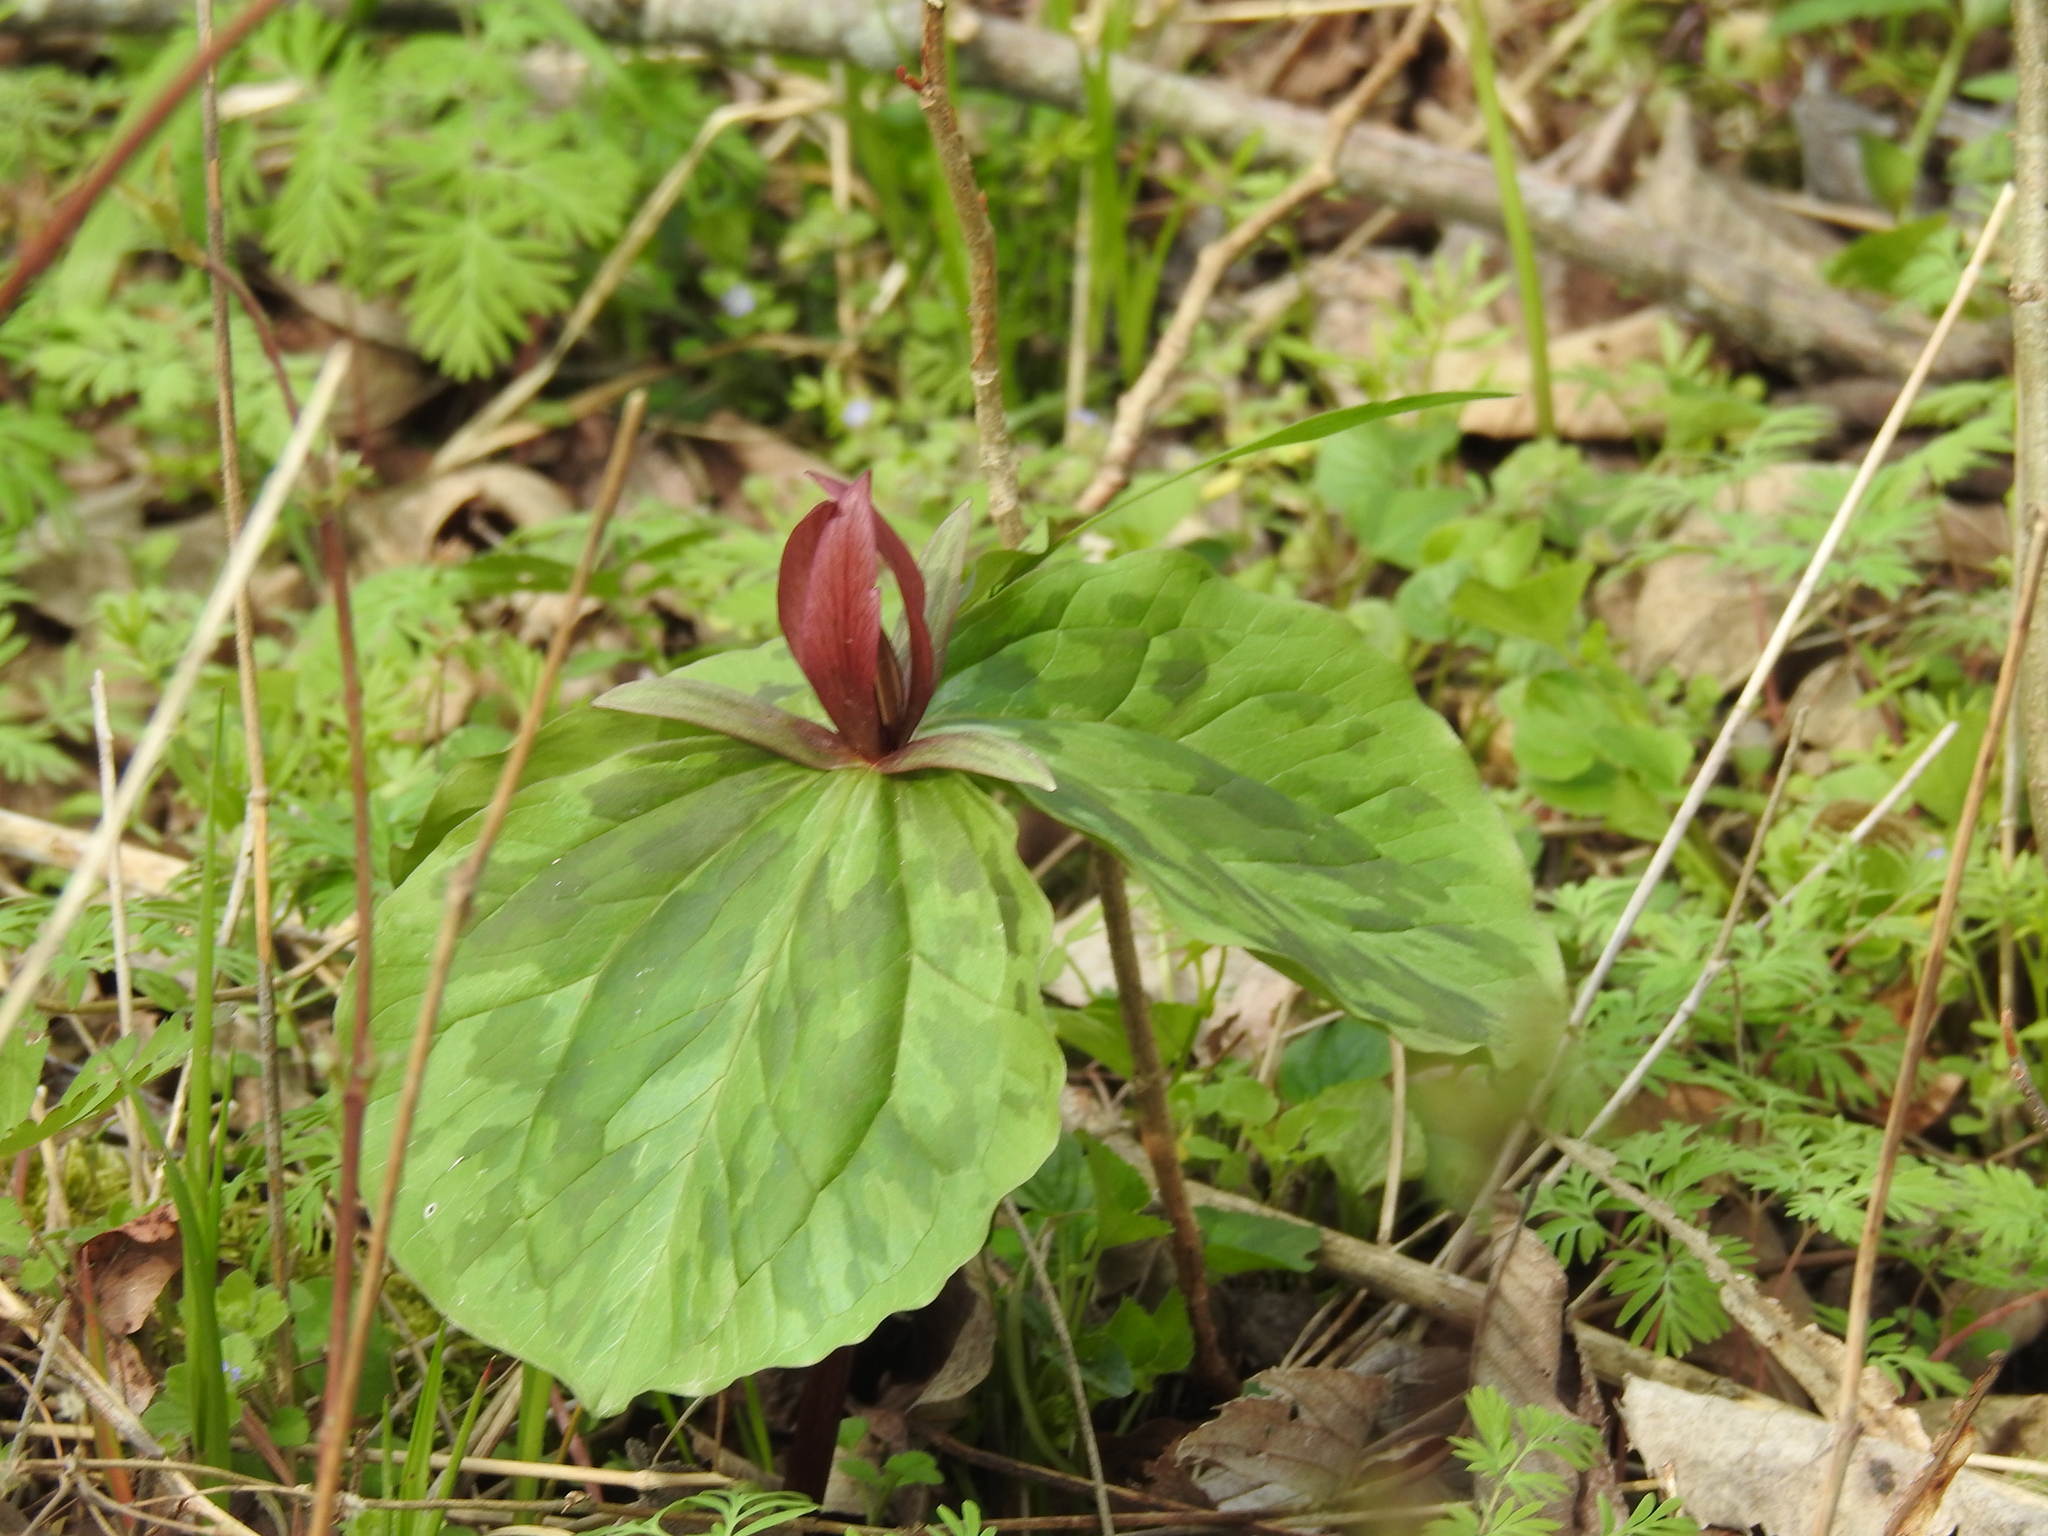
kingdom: Plantae
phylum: Tracheophyta
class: Liliopsida
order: Liliales
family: Melanthiaceae
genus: Trillium
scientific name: Trillium sessile
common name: Sessile trillium
